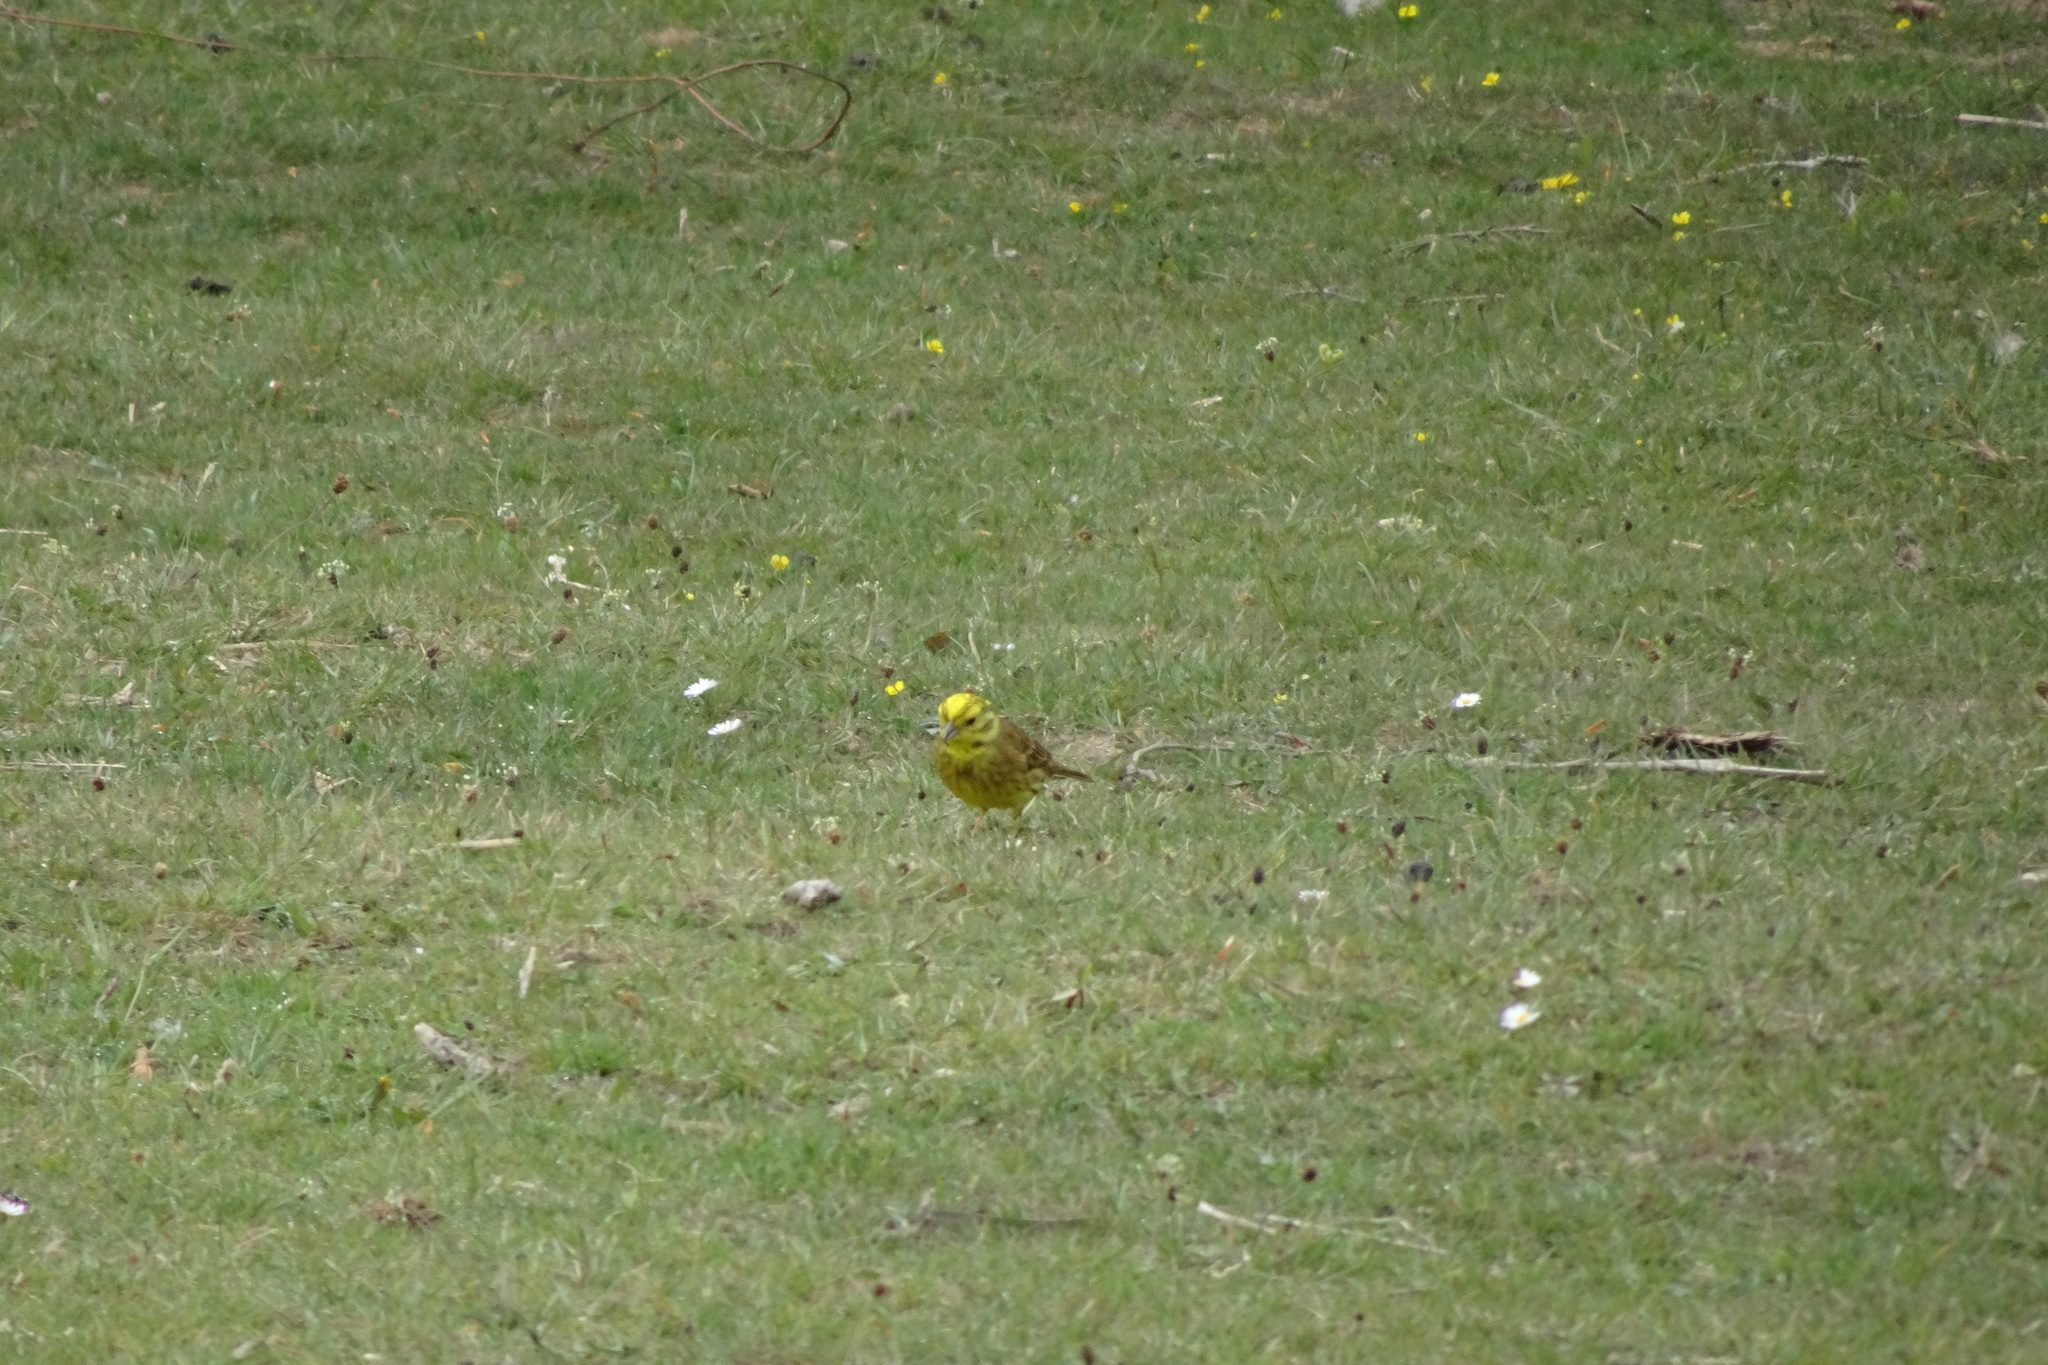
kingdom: Animalia
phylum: Chordata
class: Aves
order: Passeriformes
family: Emberizidae
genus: Emberiza
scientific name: Emberiza citrinella
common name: Yellowhammer
